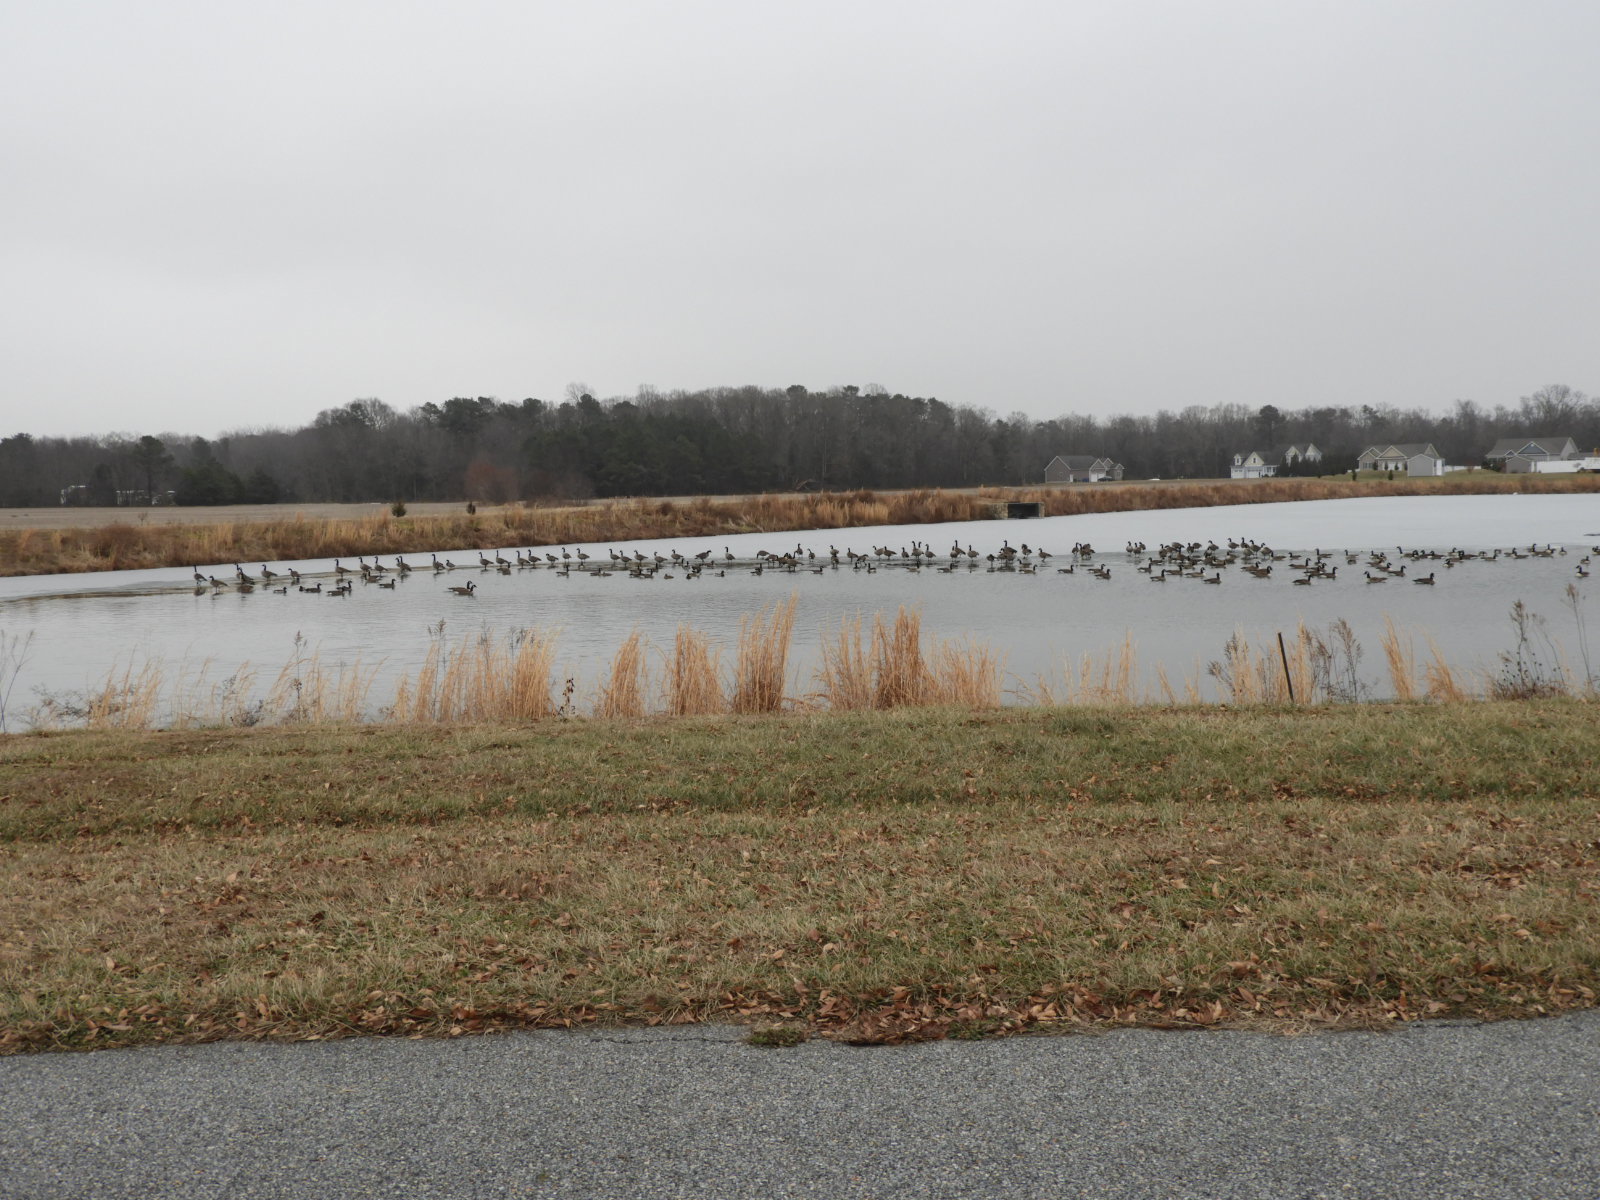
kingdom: Animalia
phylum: Chordata
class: Aves
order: Anseriformes
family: Anatidae
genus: Branta
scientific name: Branta canadensis
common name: Canada goose
